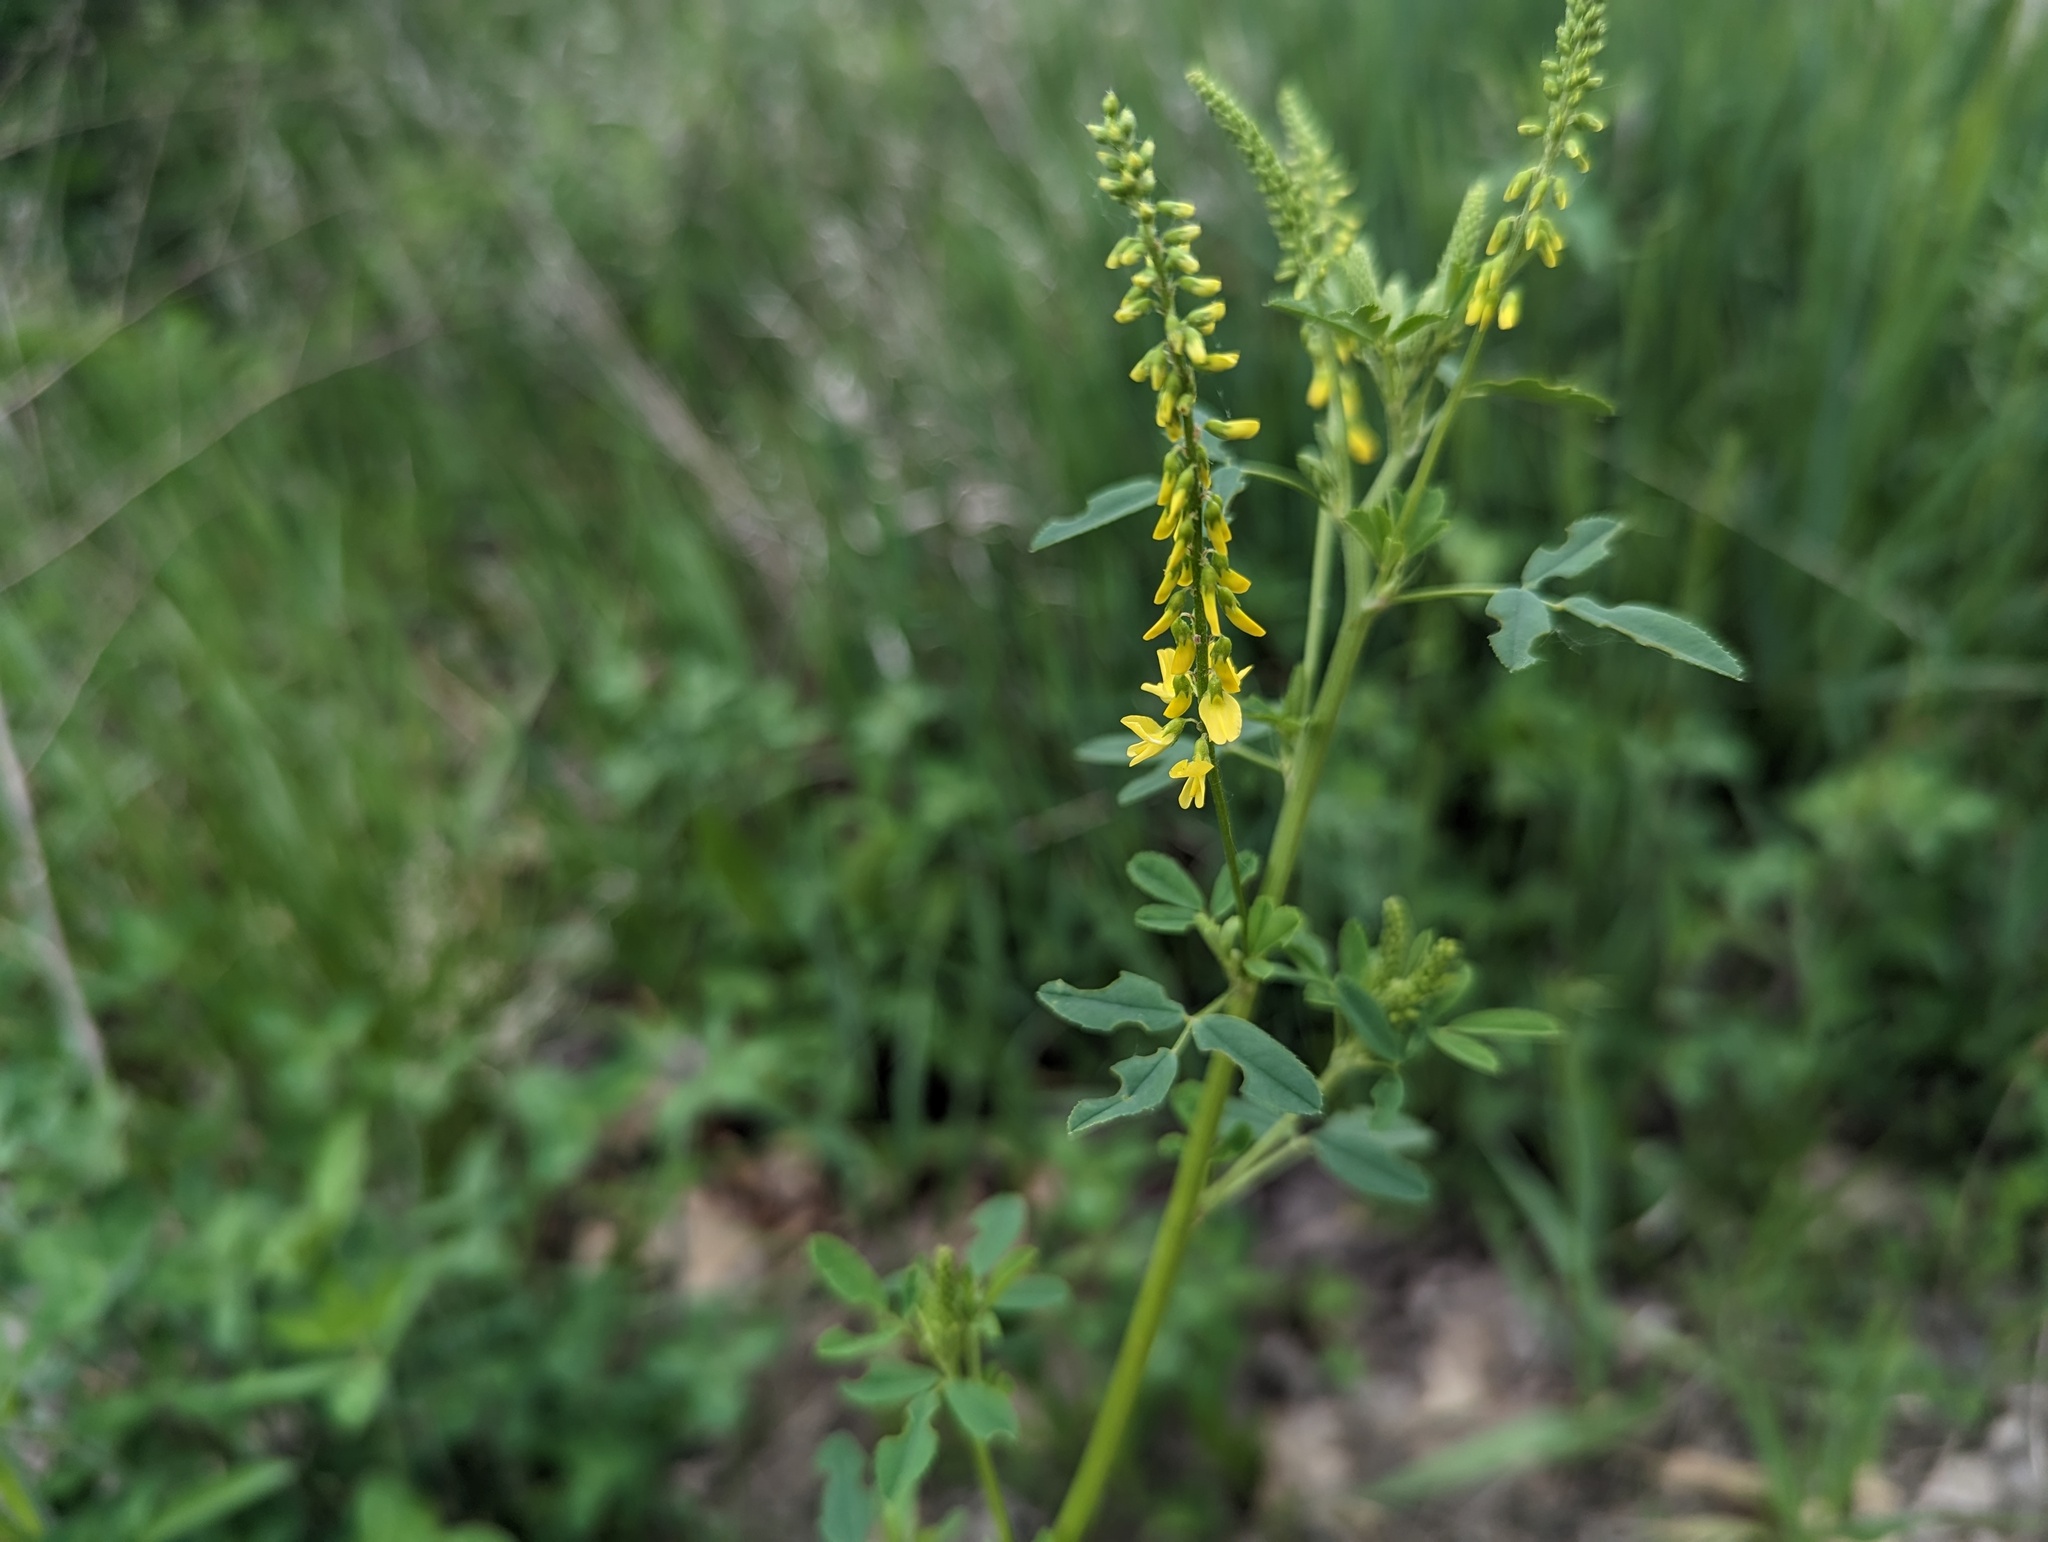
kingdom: Plantae
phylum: Tracheophyta
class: Magnoliopsida
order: Fabales
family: Fabaceae
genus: Melilotus
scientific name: Melilotus officinalis
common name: Sweetclover
